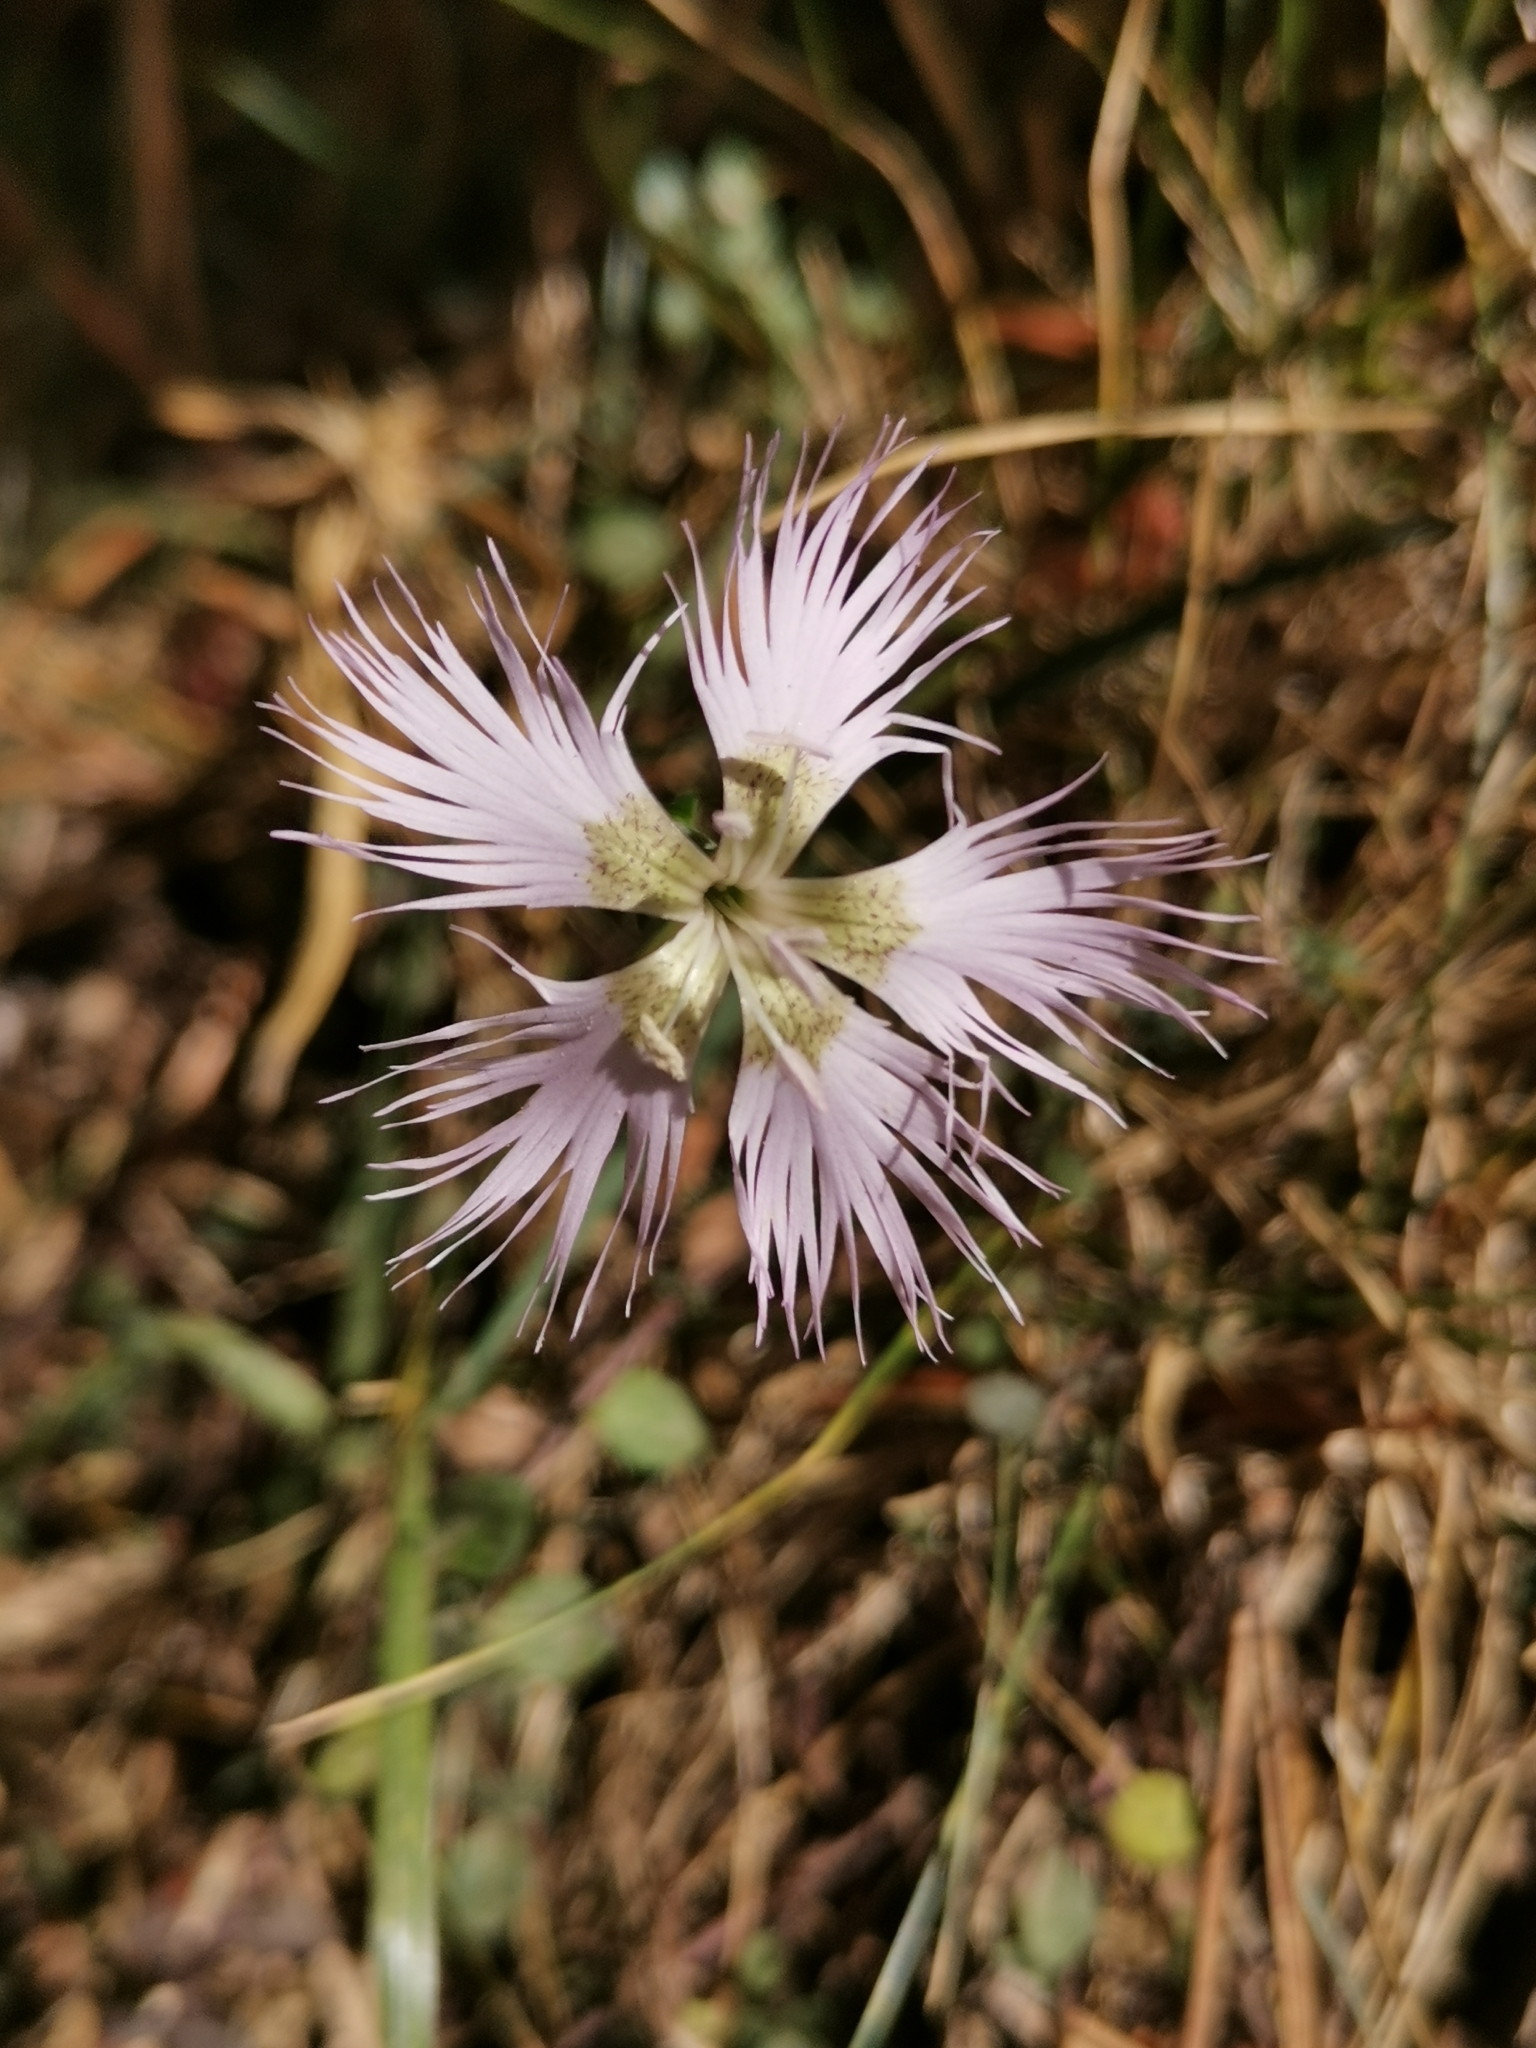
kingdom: Plantae
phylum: Tracheophyta
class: Magnoliopsida
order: Caryophyllales
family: Caryophyllaceae
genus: Dianthus
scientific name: Dianthus hyssopifolius
